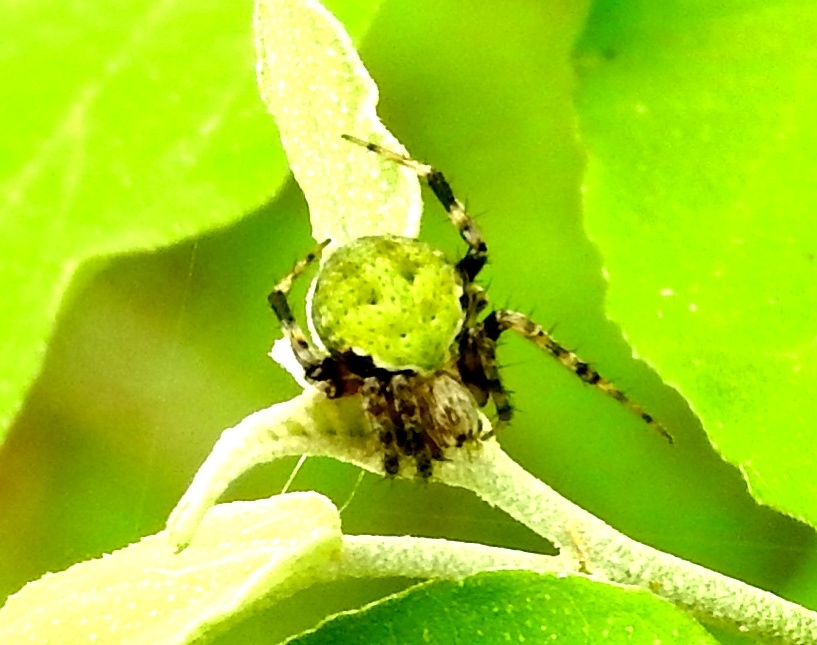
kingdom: Animalia
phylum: Arthropoda
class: Arachnida
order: Araneae
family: Araneidae
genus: Araneus
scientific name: Araneus detrimentosus
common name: Orb weavers
